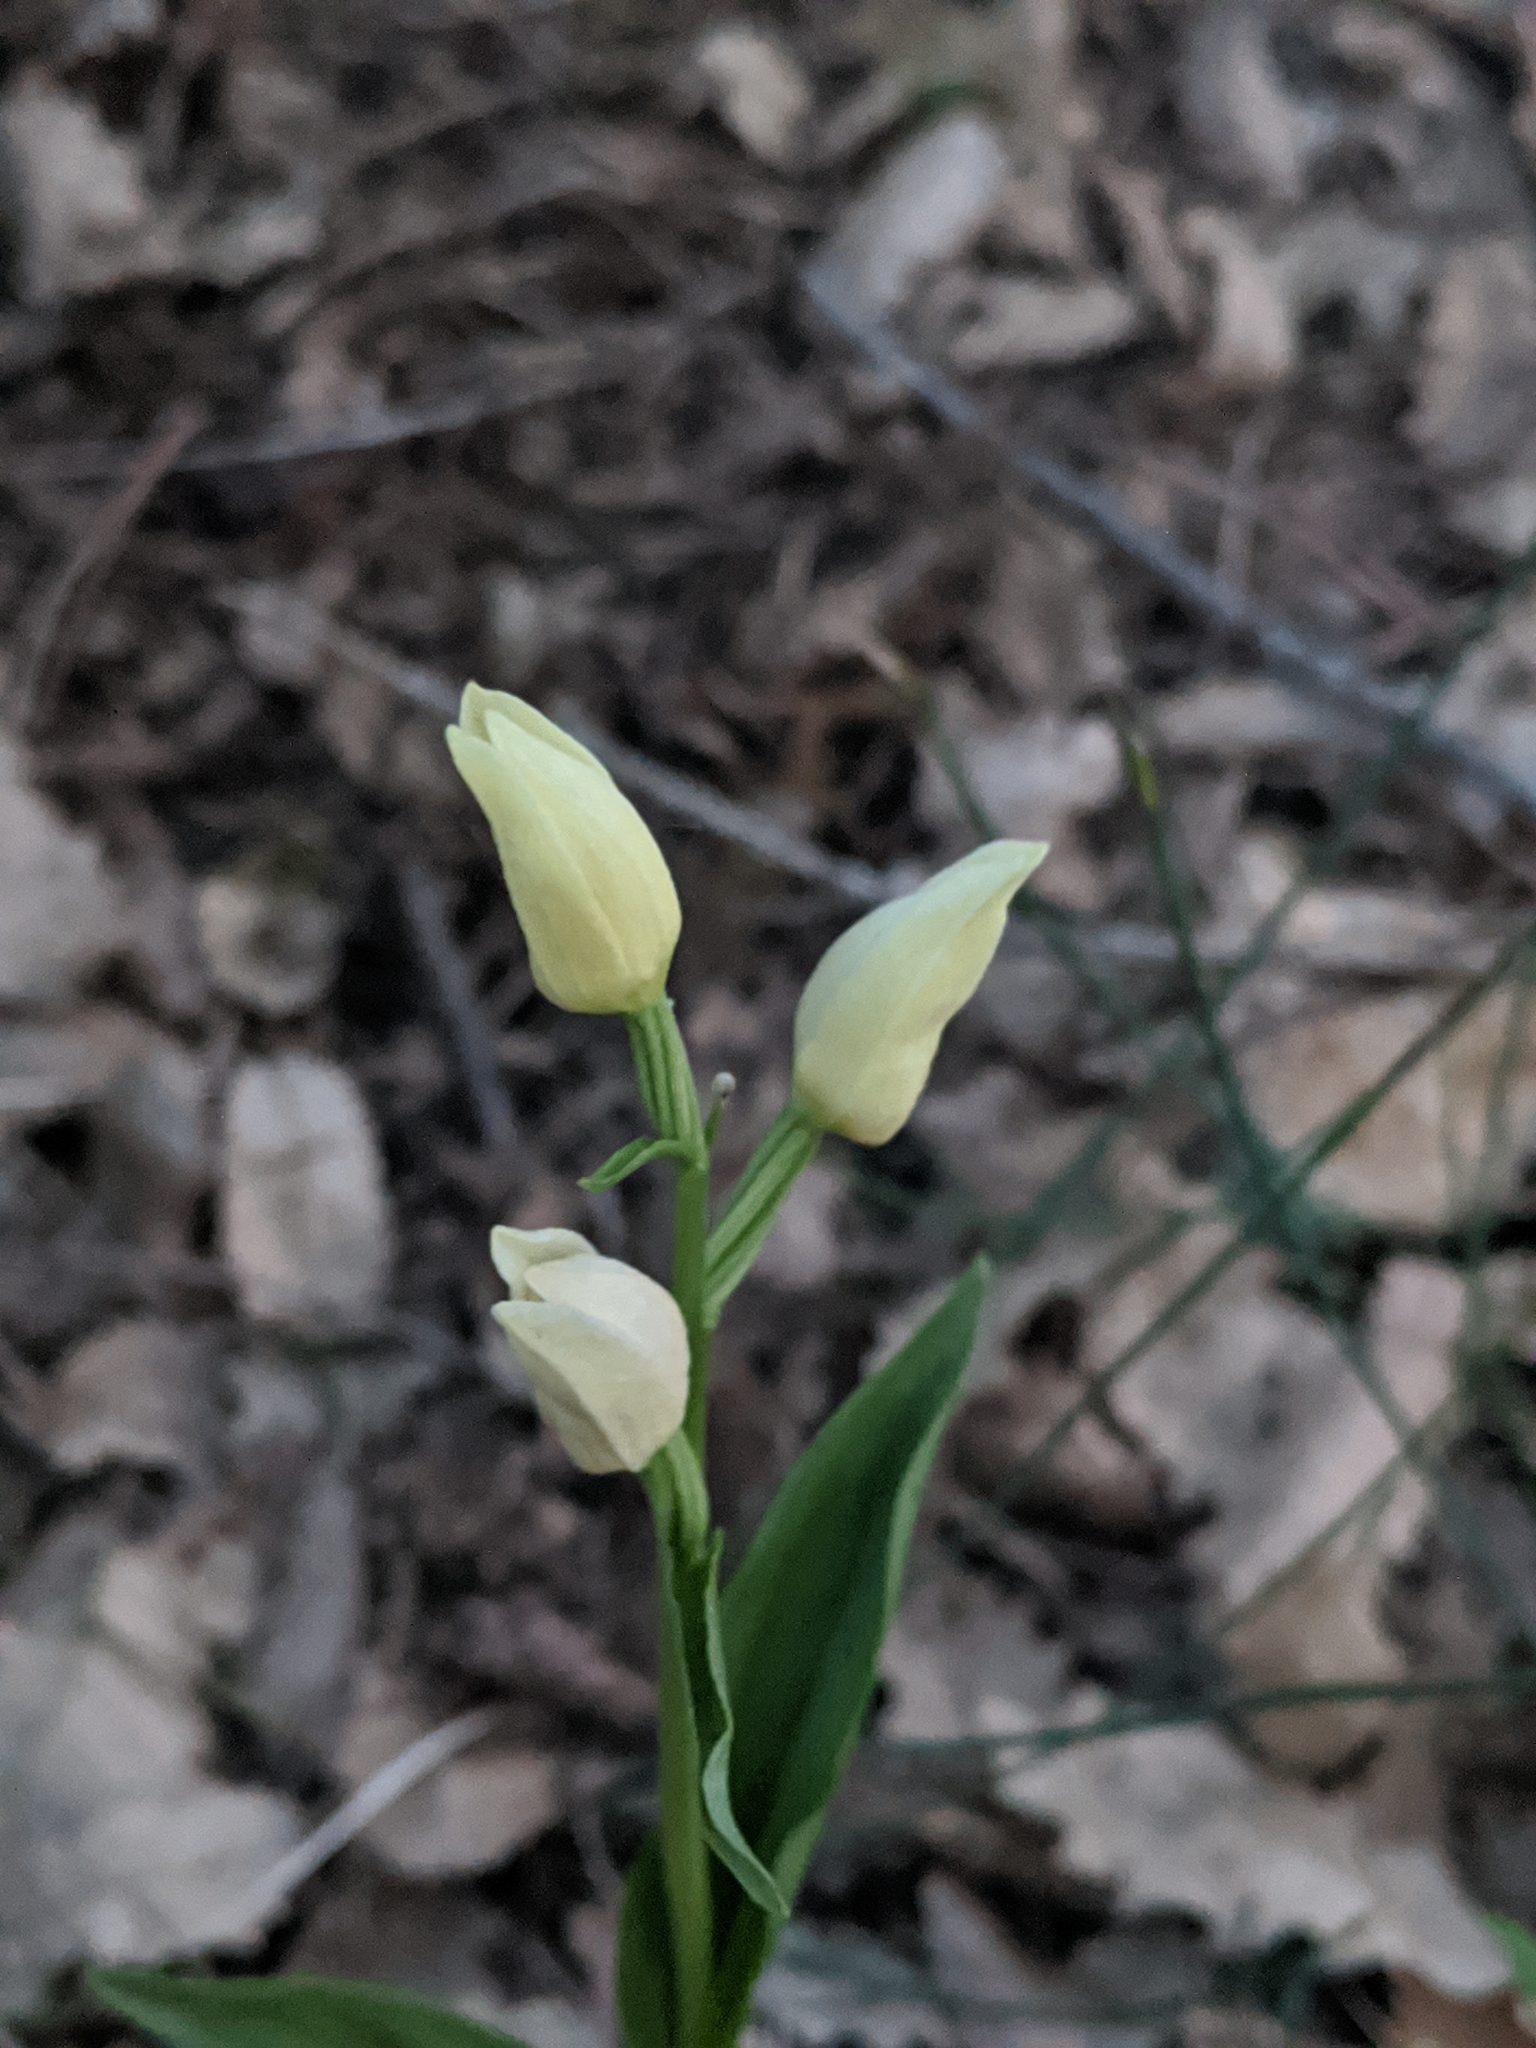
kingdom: Plantae
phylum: Tracheophyta
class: Liliopsida
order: Asparagales
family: Orchidaceae
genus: Cephalanthera
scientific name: Cephalanthera damasonium
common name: White helleborine
